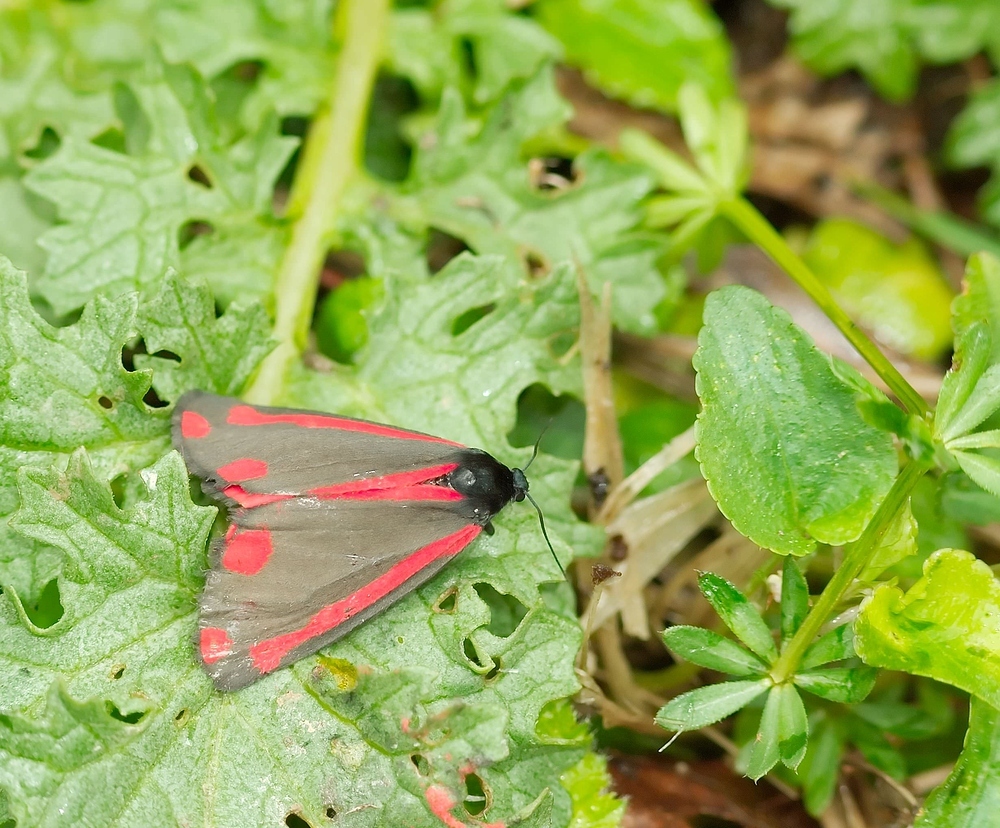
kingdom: Animalia
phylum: Arthropoda
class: Insecta
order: Lepidoptera
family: Erebidae
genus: Tyria
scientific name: Tyria jacobaeae
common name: Cinnabar
